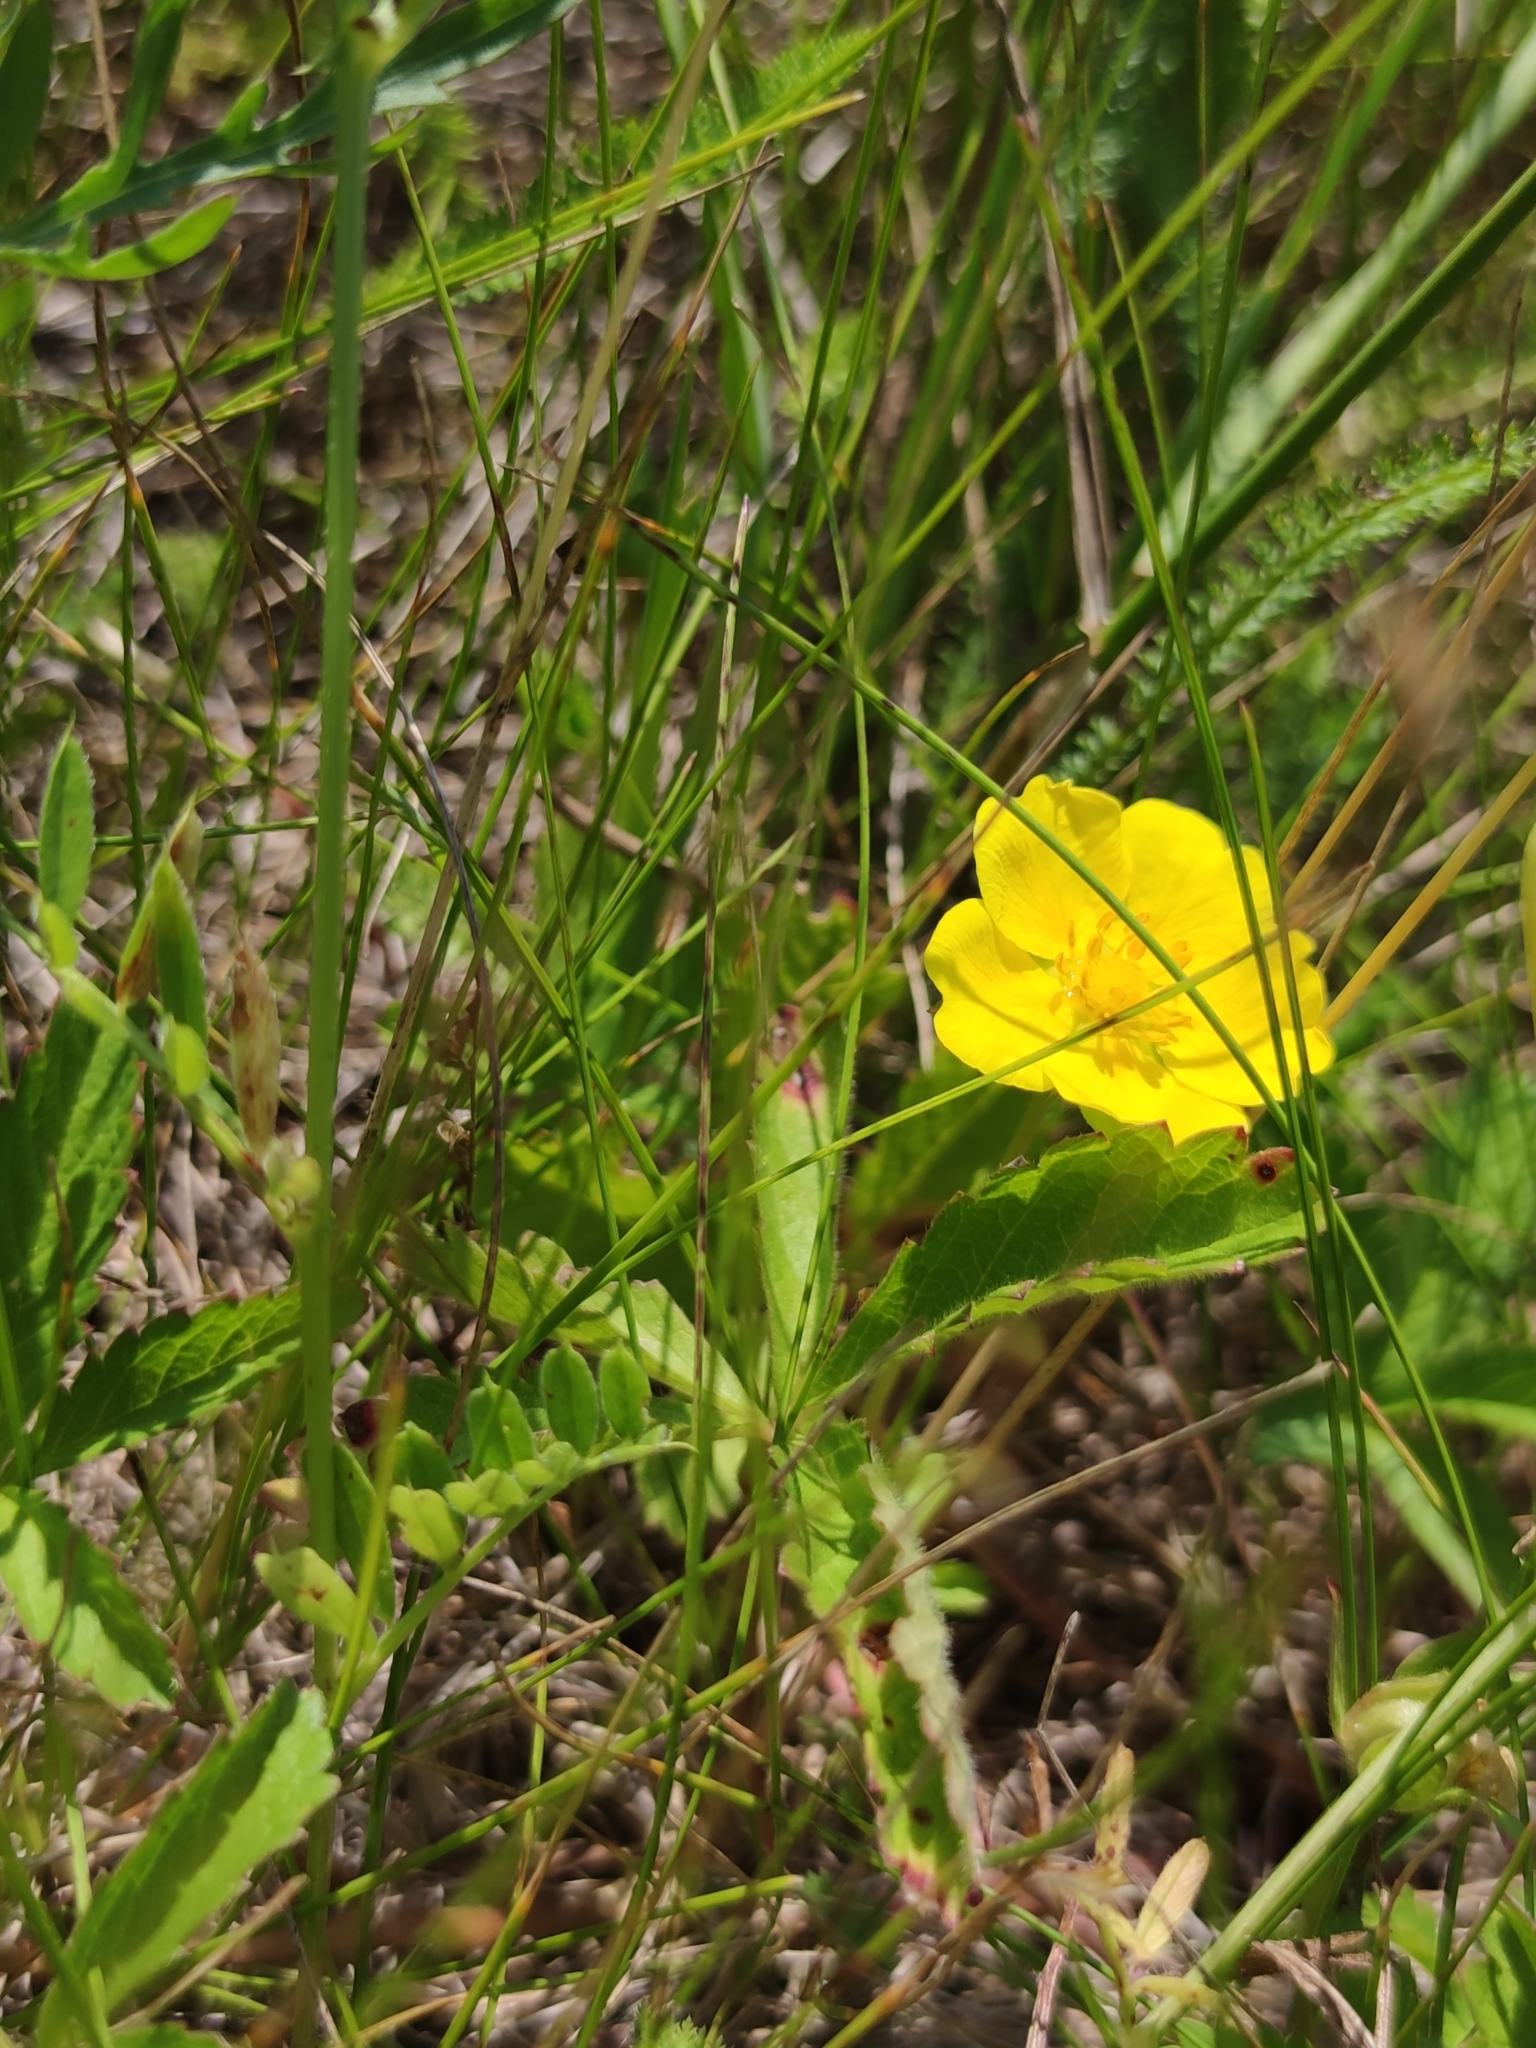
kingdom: Plantae
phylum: Tracheophyta
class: Magnoliopsida
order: Rosales
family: Rosaceae
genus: Potentilla
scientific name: Potentilla reptans
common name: Creeping cinquefoil
